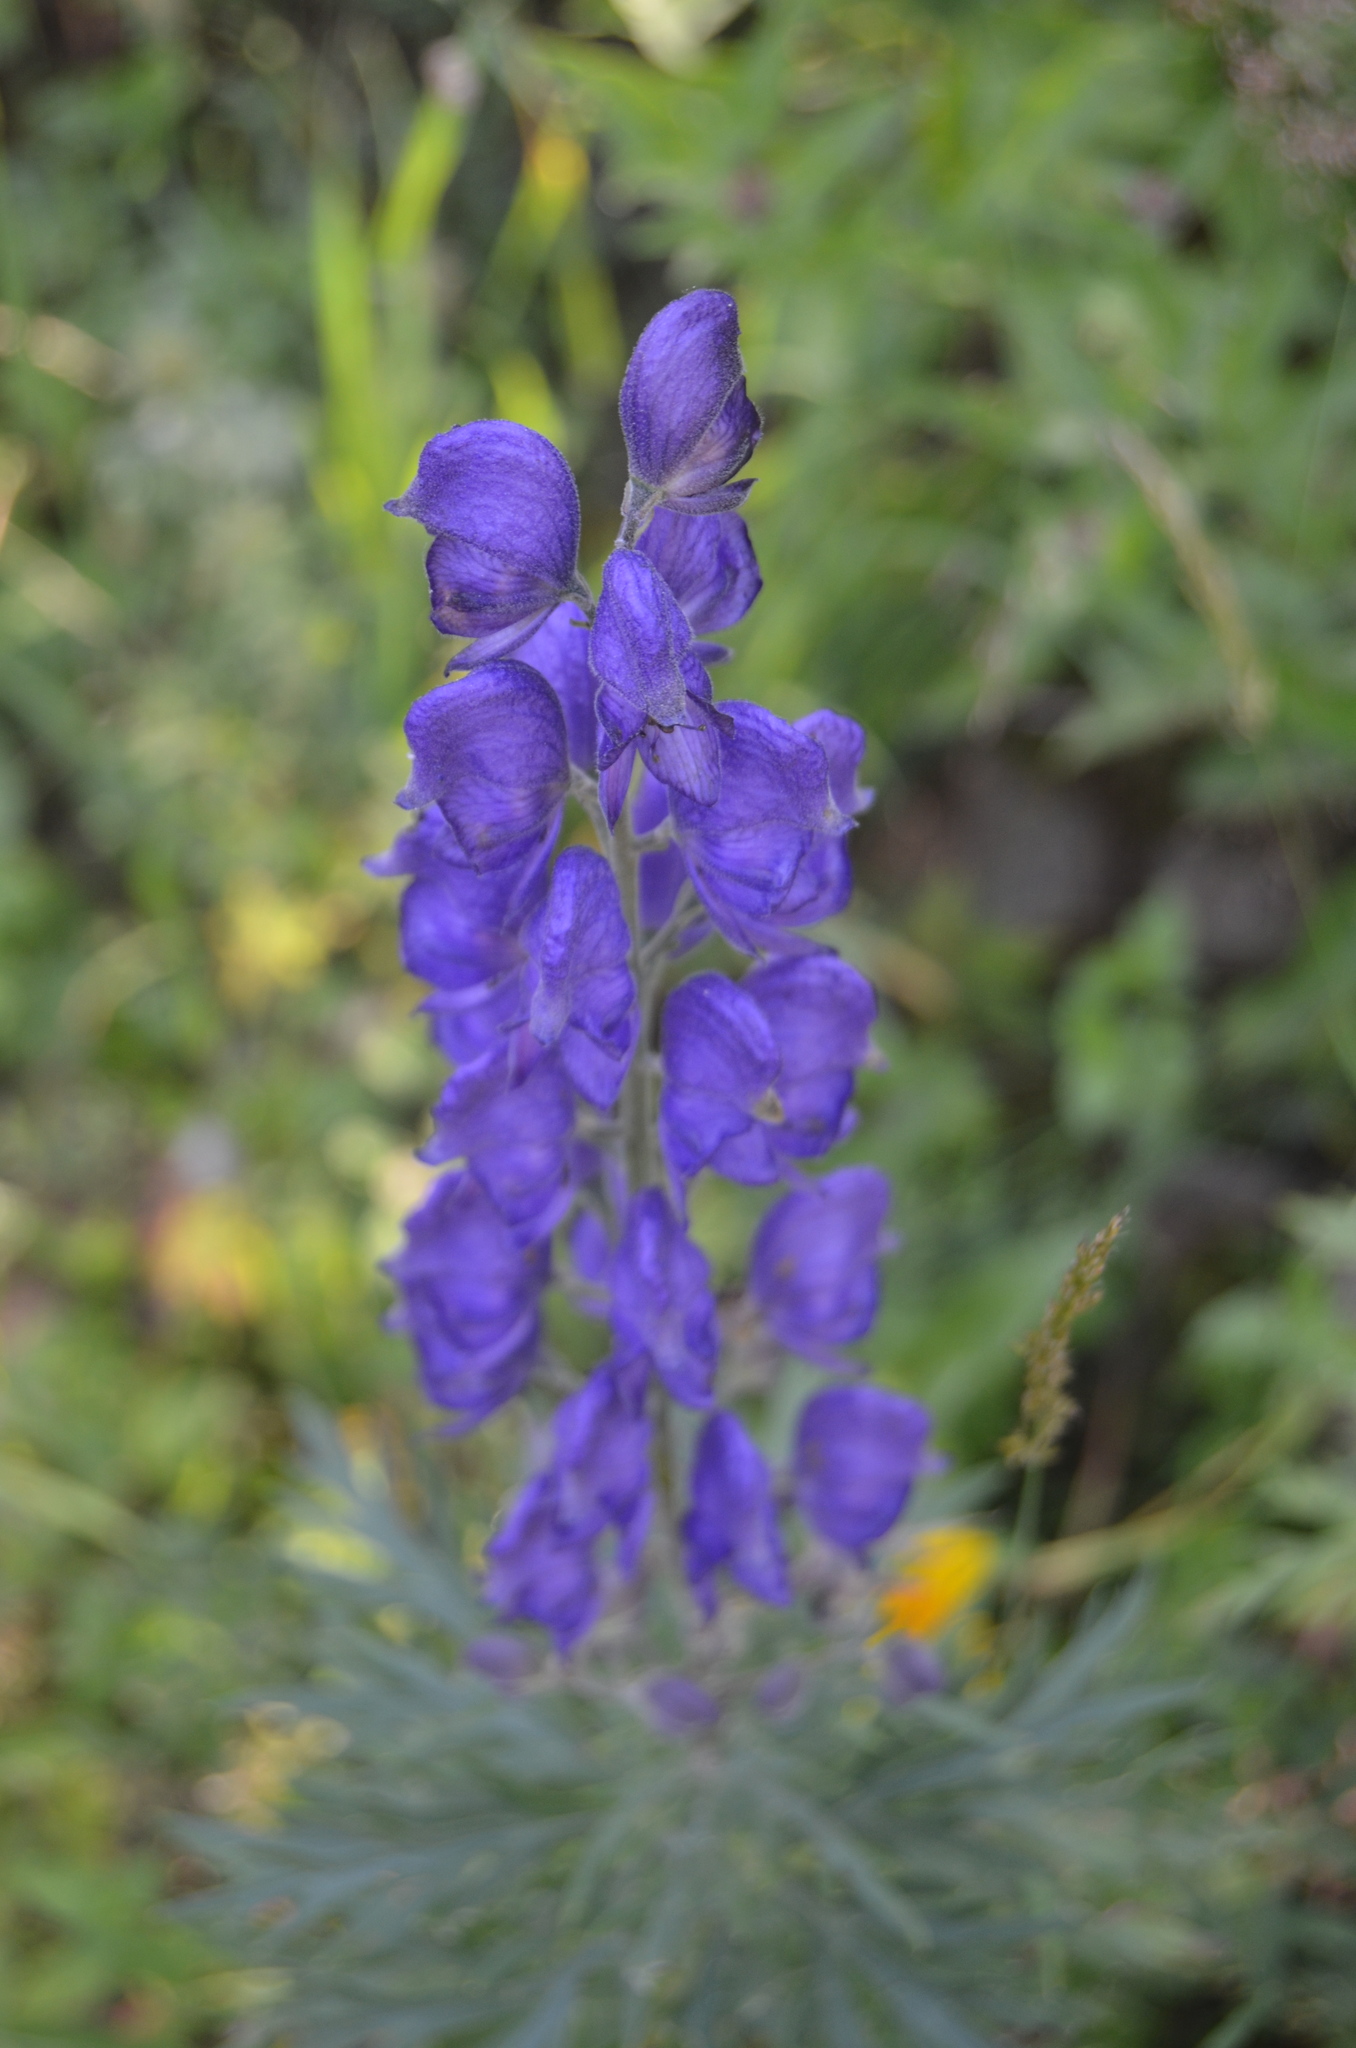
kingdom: Plantae
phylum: Tracheophyta
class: Magnoliopsida
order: Ranunculales
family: Ranunculaceae
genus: Aconitum
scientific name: Aconitum napellus
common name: Garden monkshood
